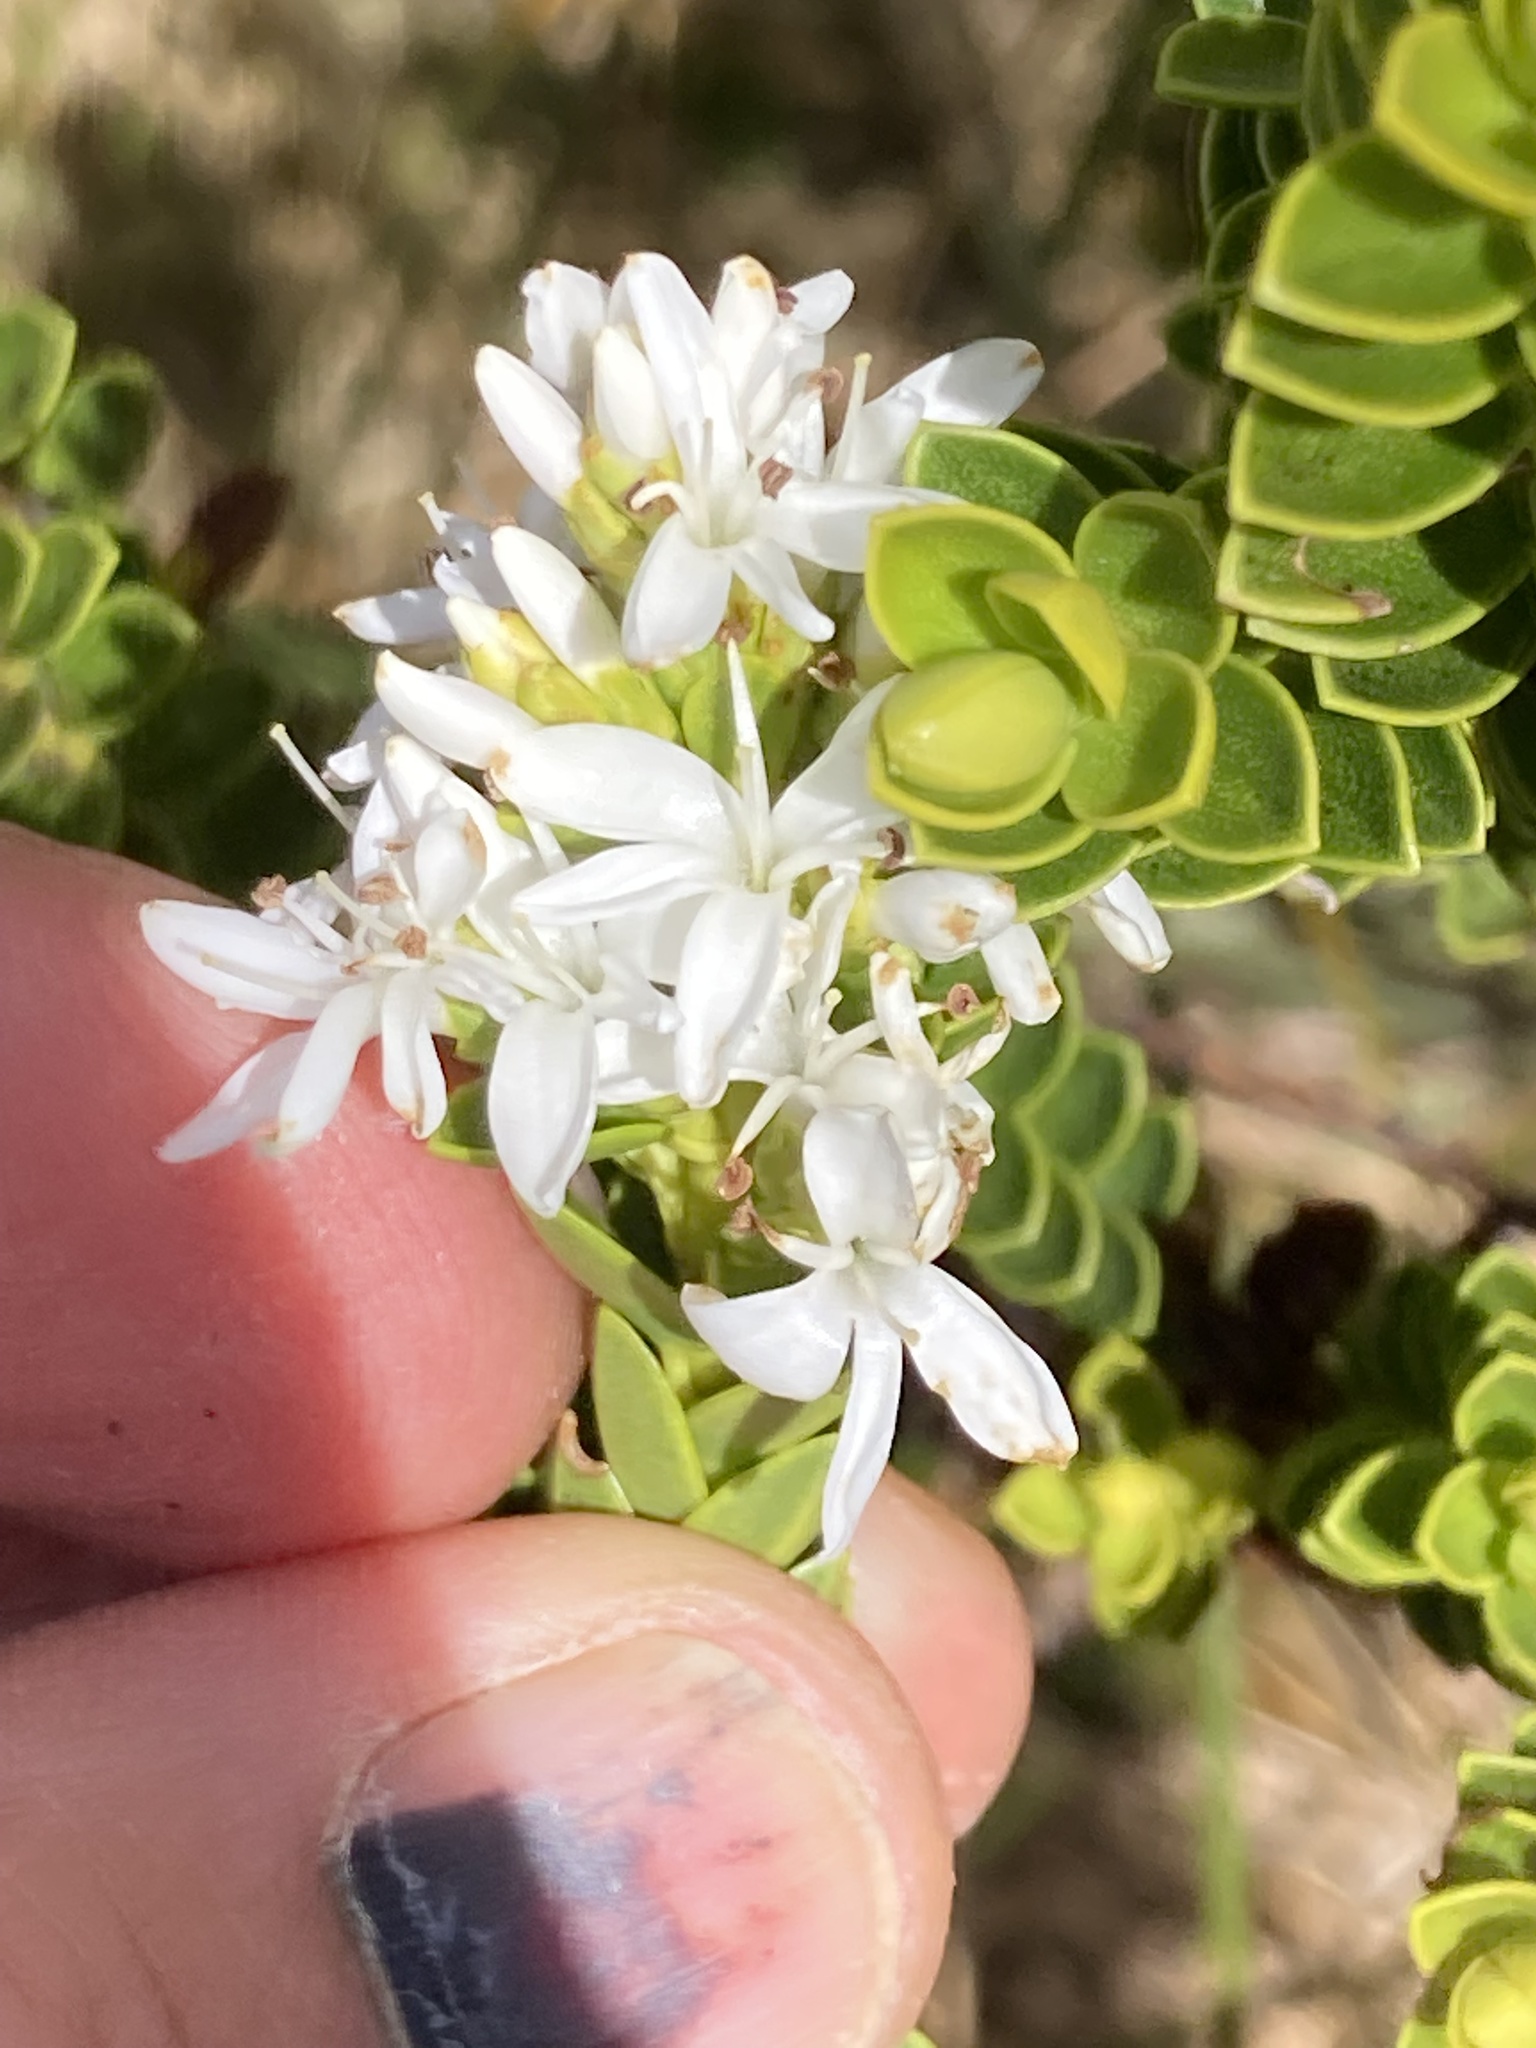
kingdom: Plantae
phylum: Tracheophyta
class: Magnoliopsida
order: Lamiales
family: Plantaginaceae
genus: Veronica
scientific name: Veronica odora
